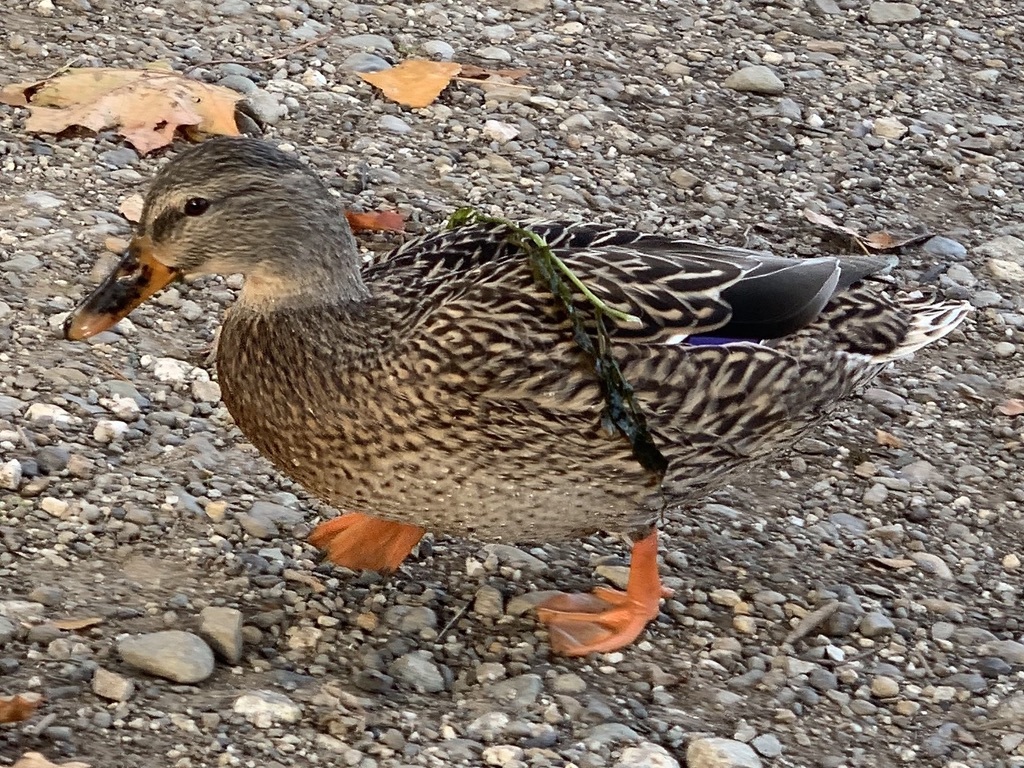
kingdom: Animalia
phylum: Chordata
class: Aves
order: Anseriformes
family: Anatidae
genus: Anas
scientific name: Anas platyrhynchos
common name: Mallard
